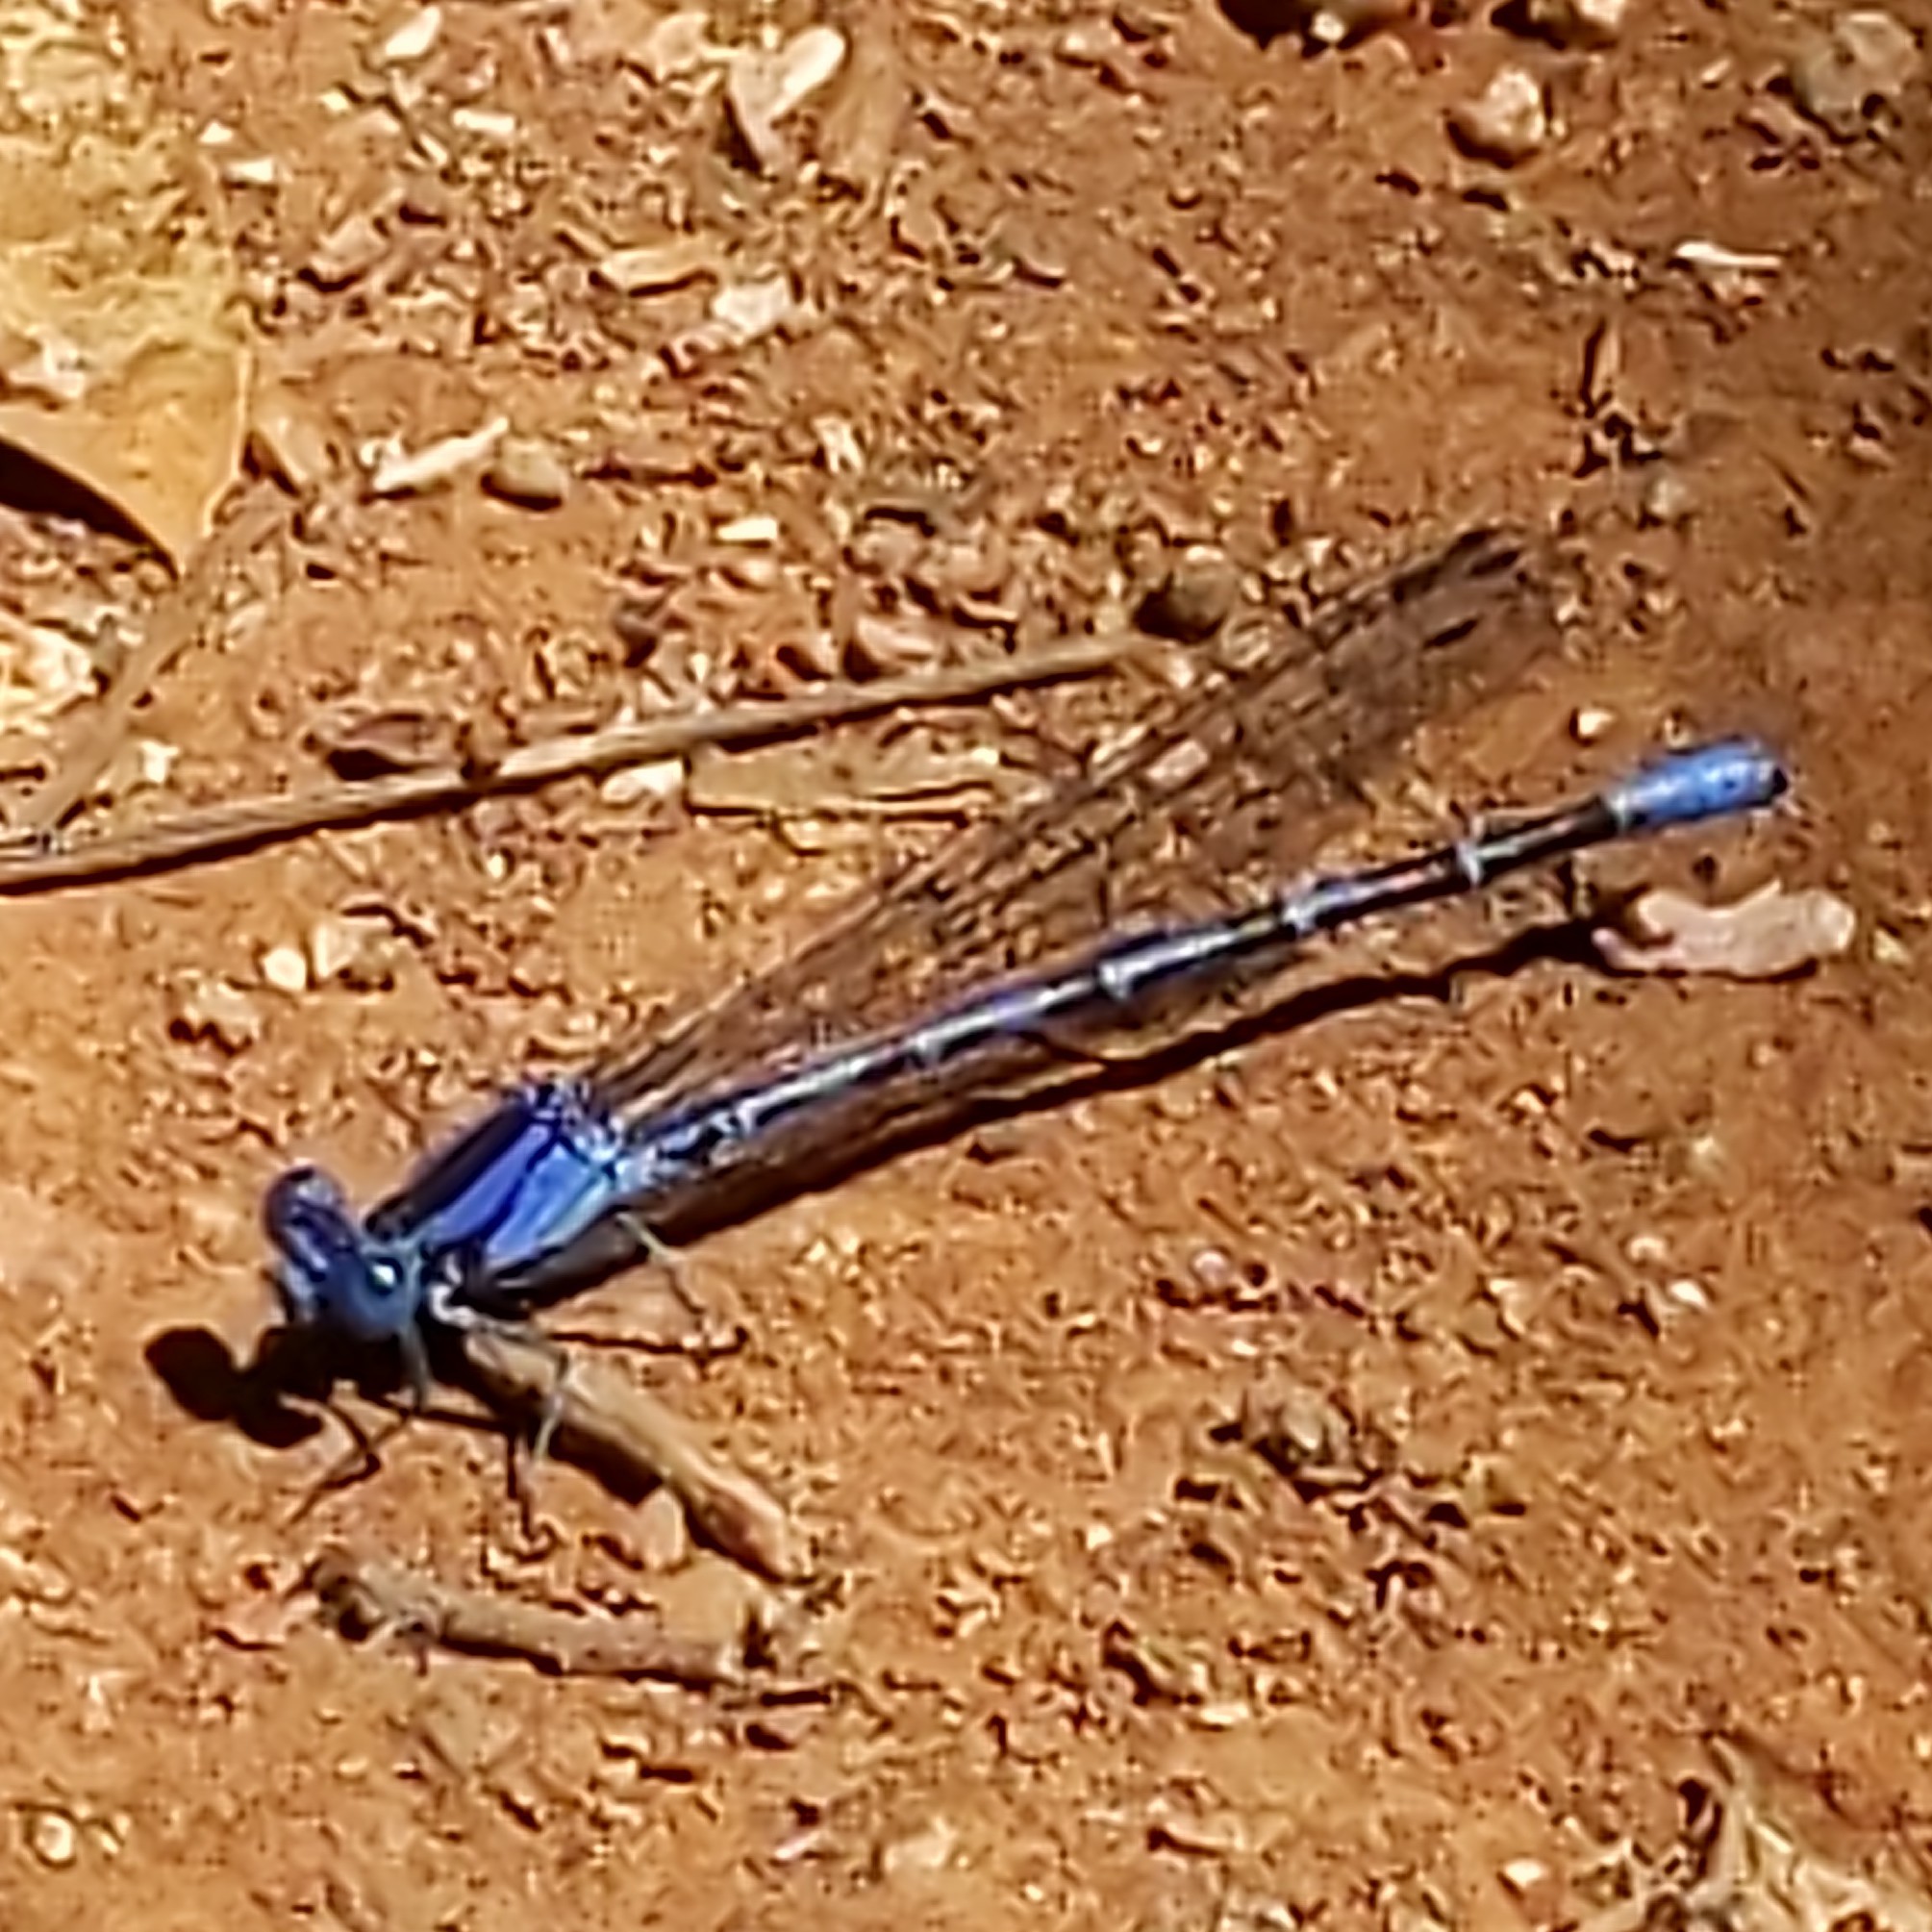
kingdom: Animalia
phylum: Arthropoda
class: Insecta
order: Odonata
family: Coenagrionidae
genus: Argia
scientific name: Argia vivida
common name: Vivid dancer
